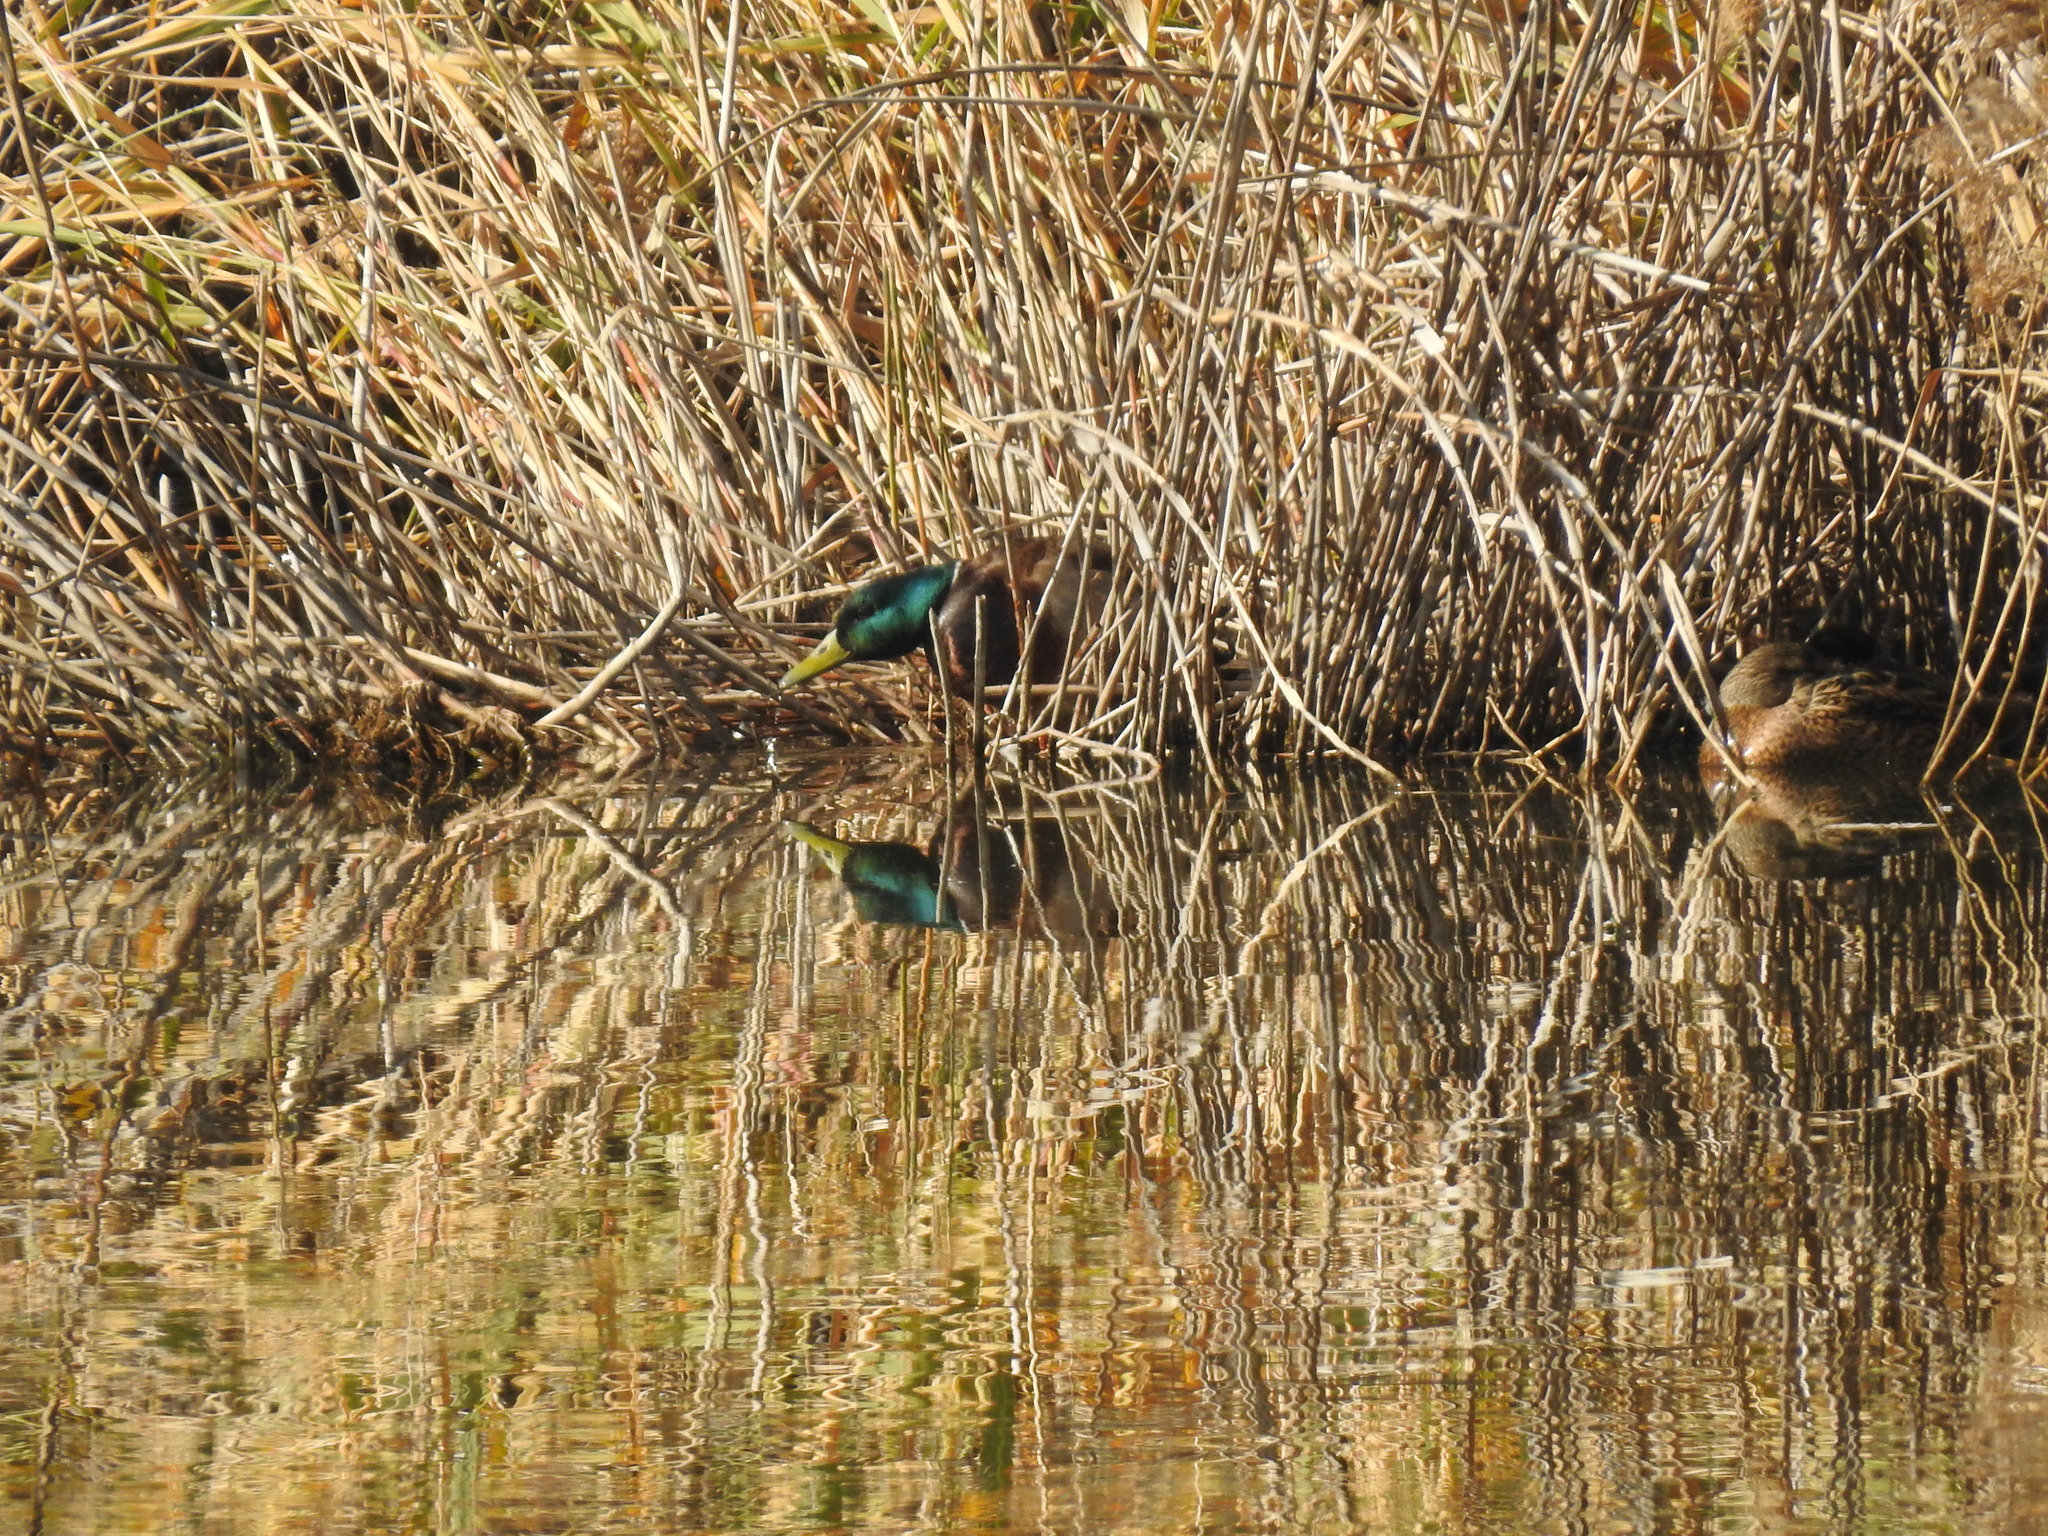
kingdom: Animalia
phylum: Chordata
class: Aves
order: Anseriformes
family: Anatidae
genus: Anas
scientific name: Anas platyrhynchos
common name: Mallard
